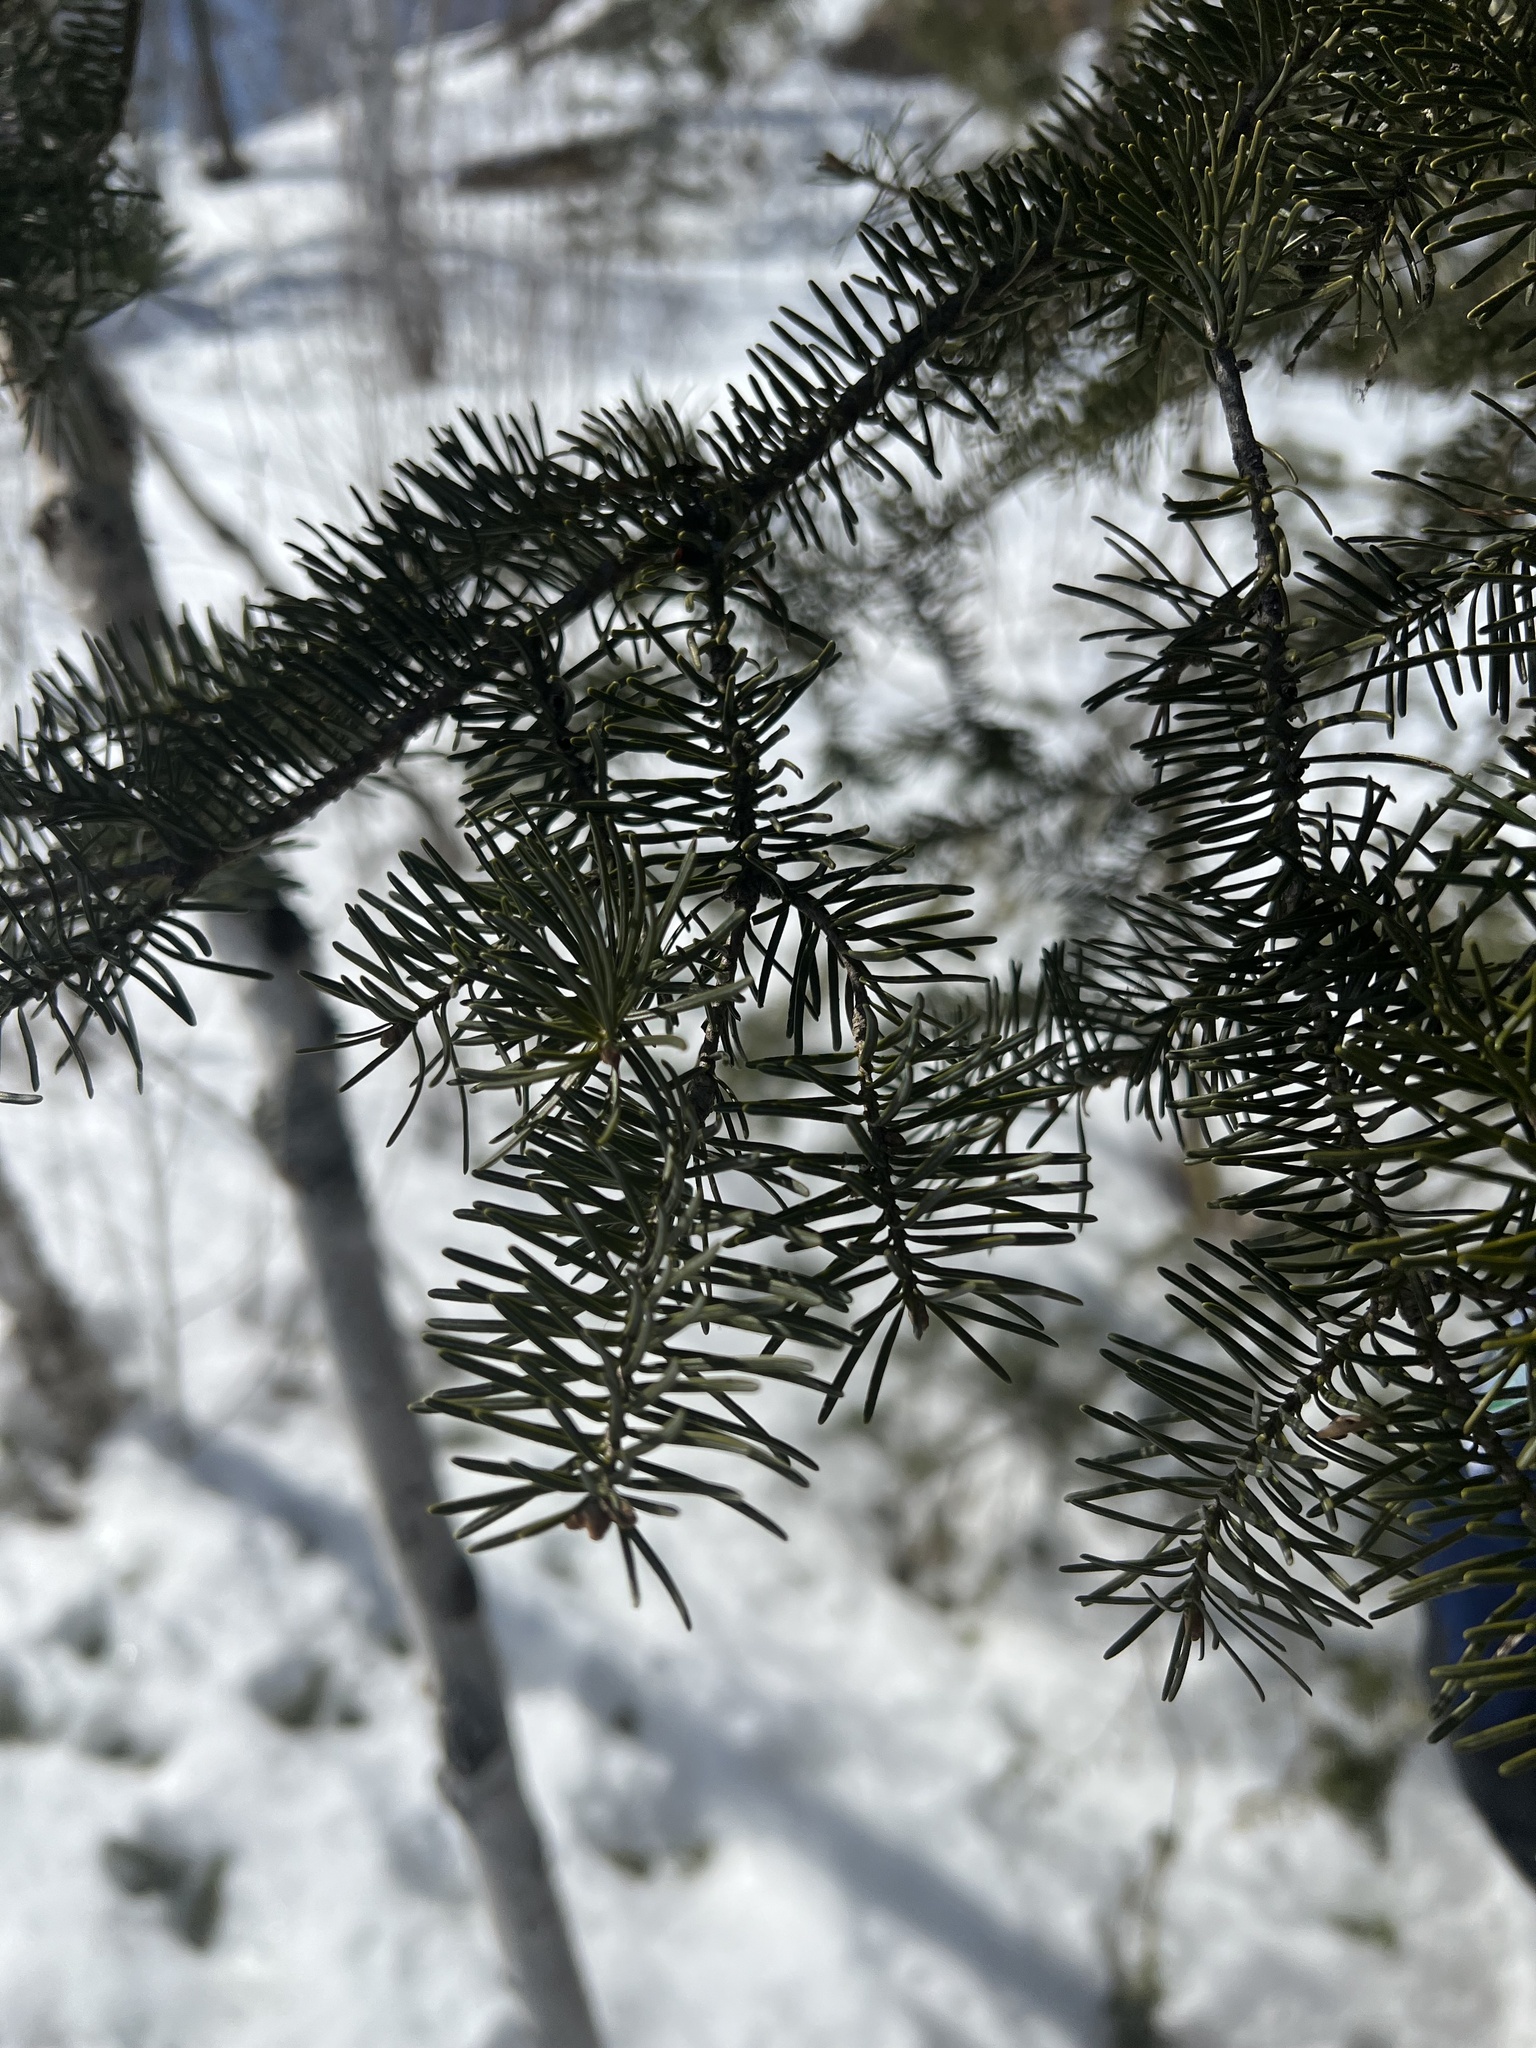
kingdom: Plantae
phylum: Tracheophyta
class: Pinopsida
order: Pinales
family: Pinaceae
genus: Abies
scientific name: Abies balsamea
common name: Balsam fir
